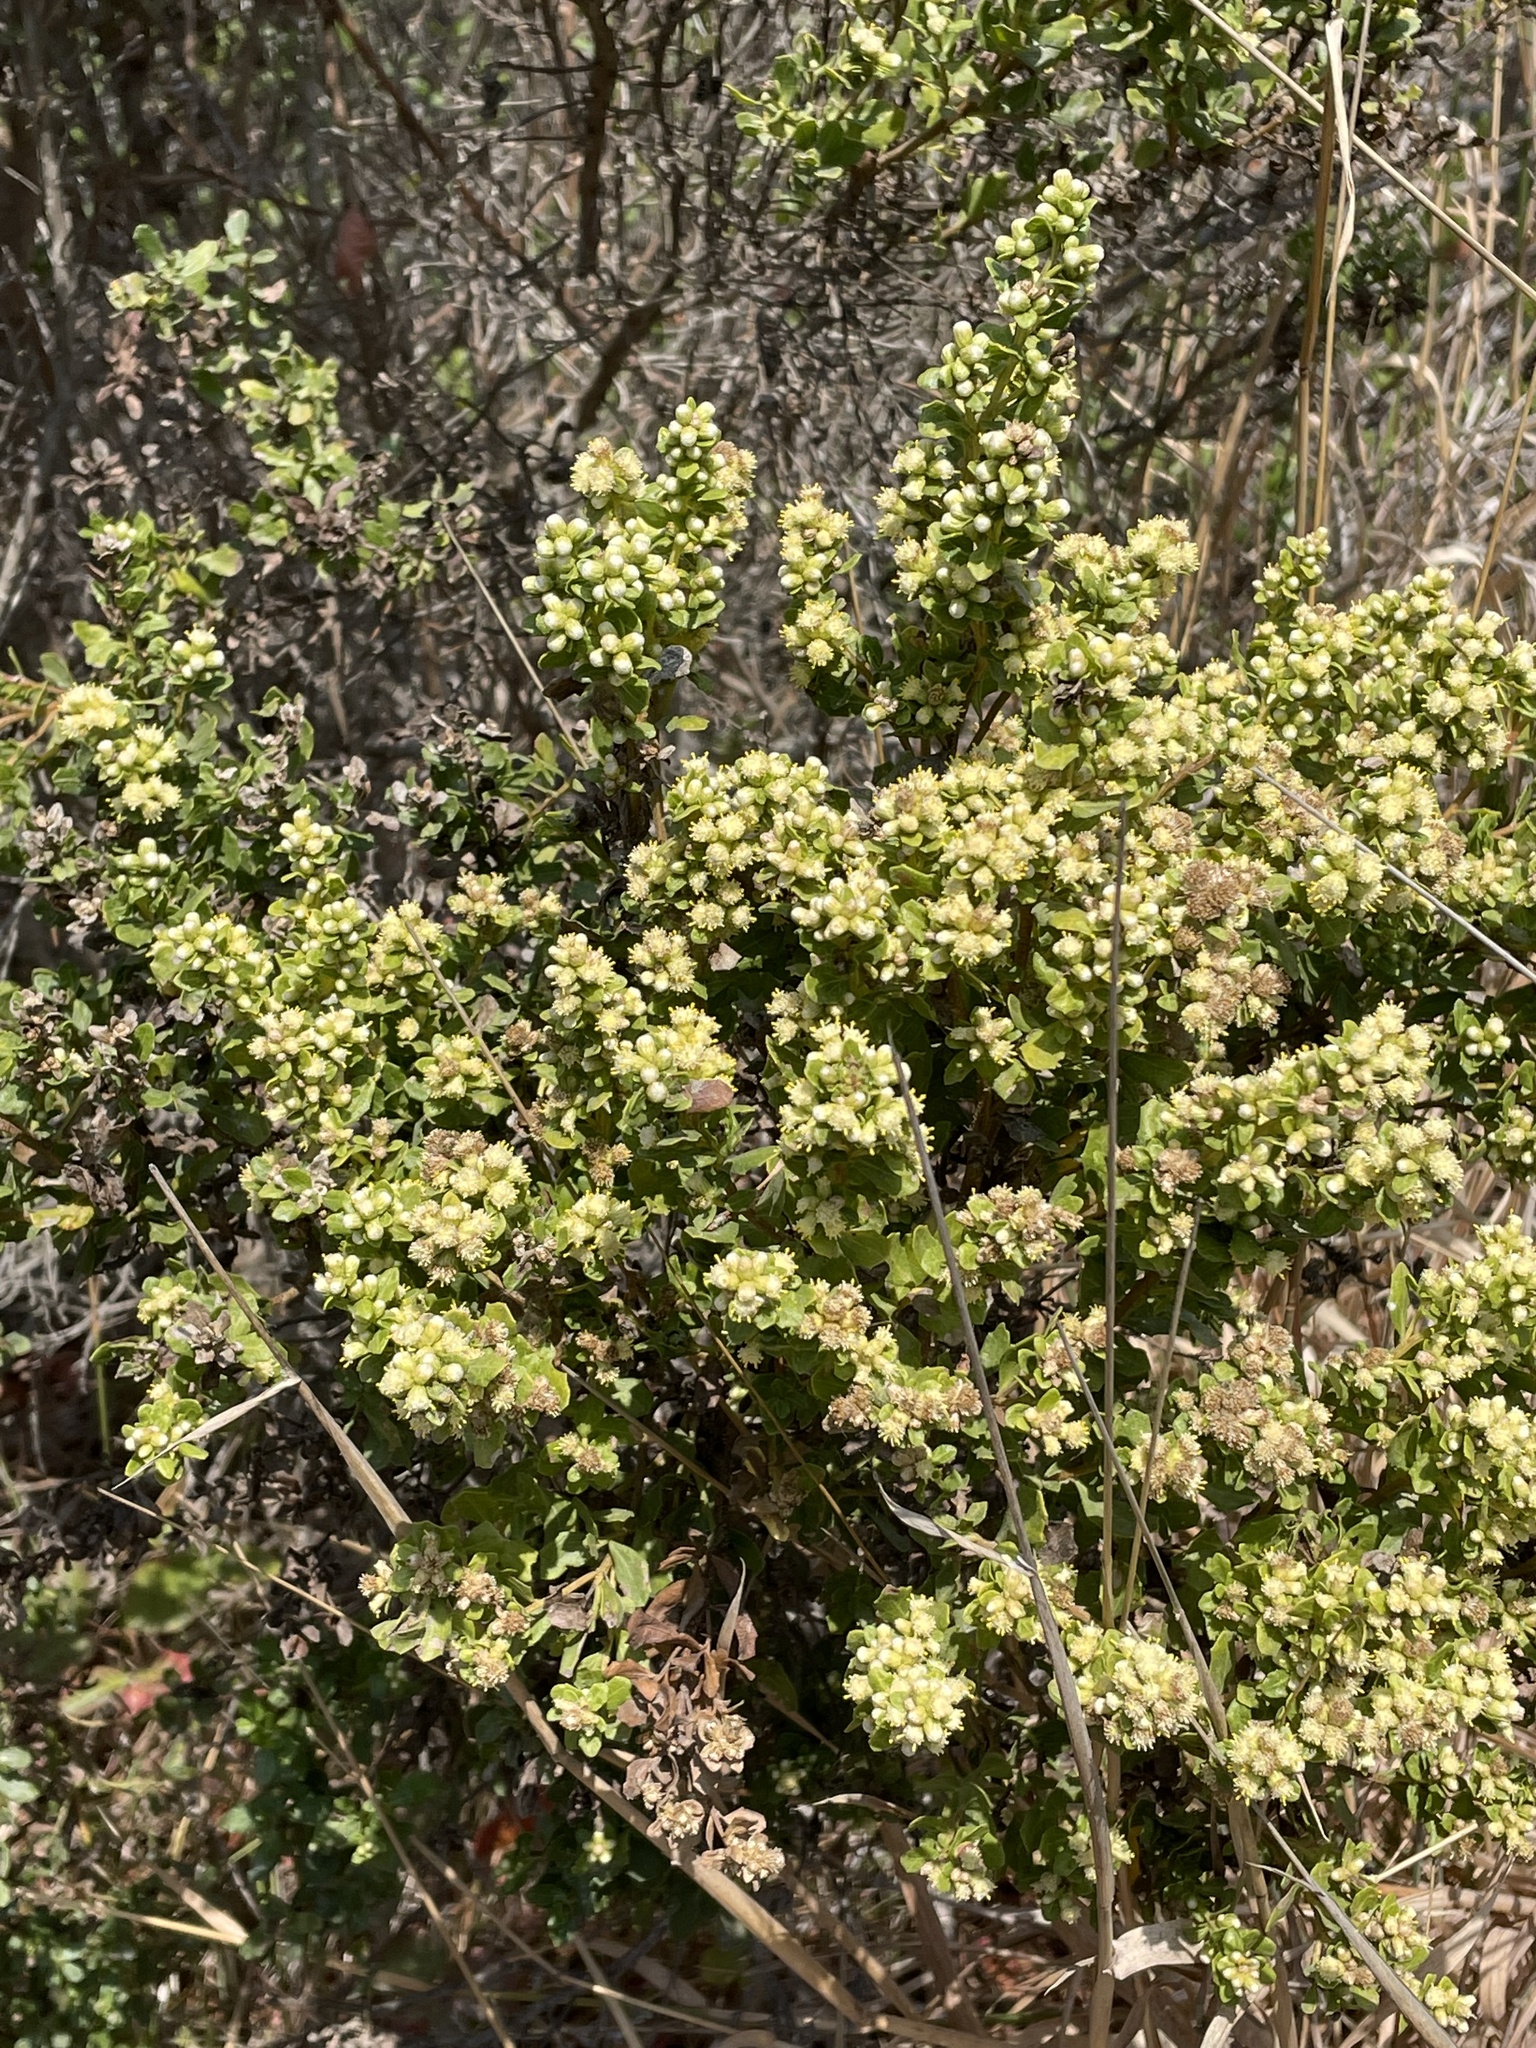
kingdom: Plantae
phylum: Tracheophyta
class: Magnoliopsida
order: Asterales
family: Asteraceae
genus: Baccharis
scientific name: Baccharis pilularis
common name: Coyotebrush
